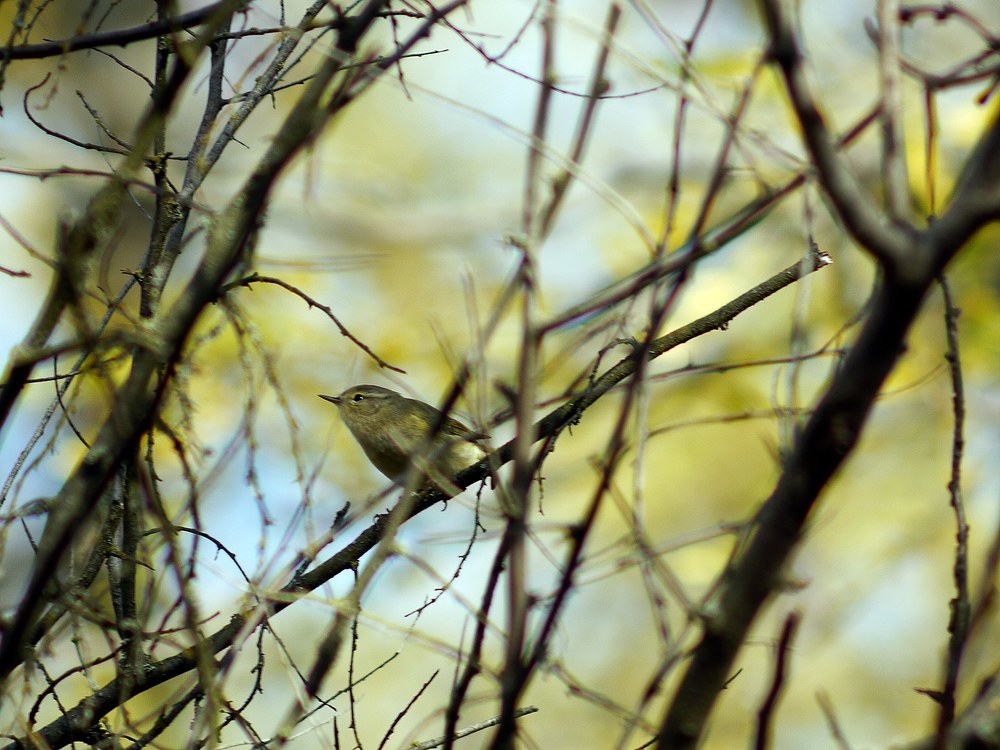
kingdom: Animalia
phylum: Chordata
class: Aves
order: Passeriformes
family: Phylloscopidae
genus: Phylloscopus
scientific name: Phylloscopus collybita
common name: Common chiffchaff
